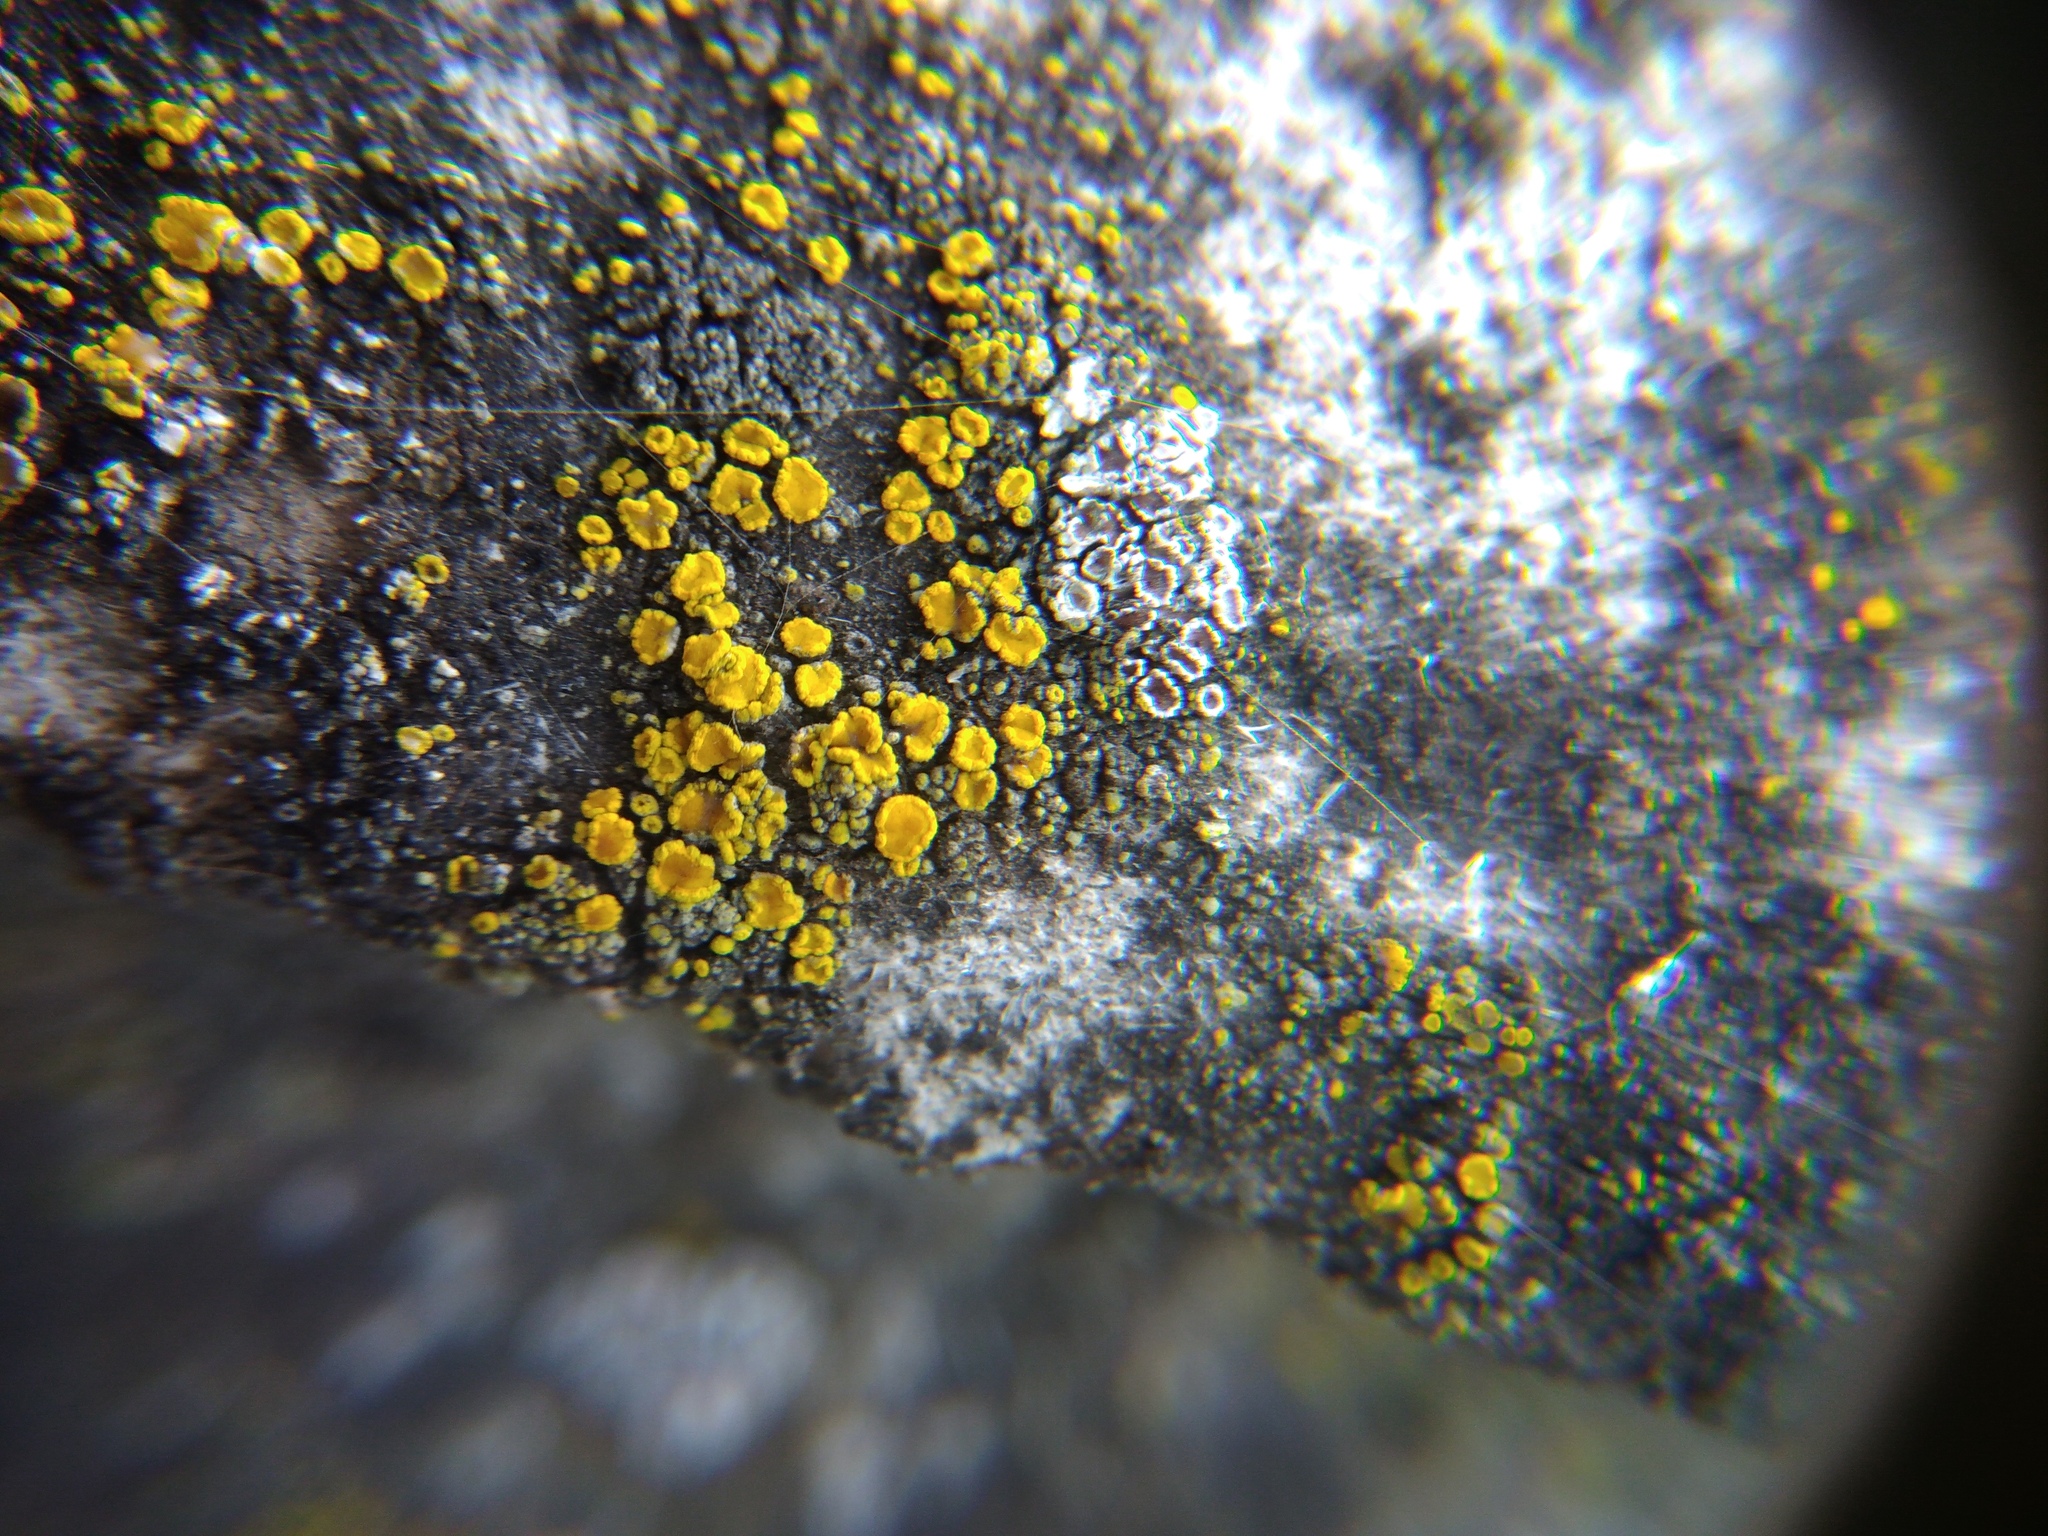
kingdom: Fungi
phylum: Ascomycota
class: Candelariomycetes
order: Candelariales
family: Candelariaceae
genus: Candelariella
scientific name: Candelariella aurella
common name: Hidden goldspeck lichen
